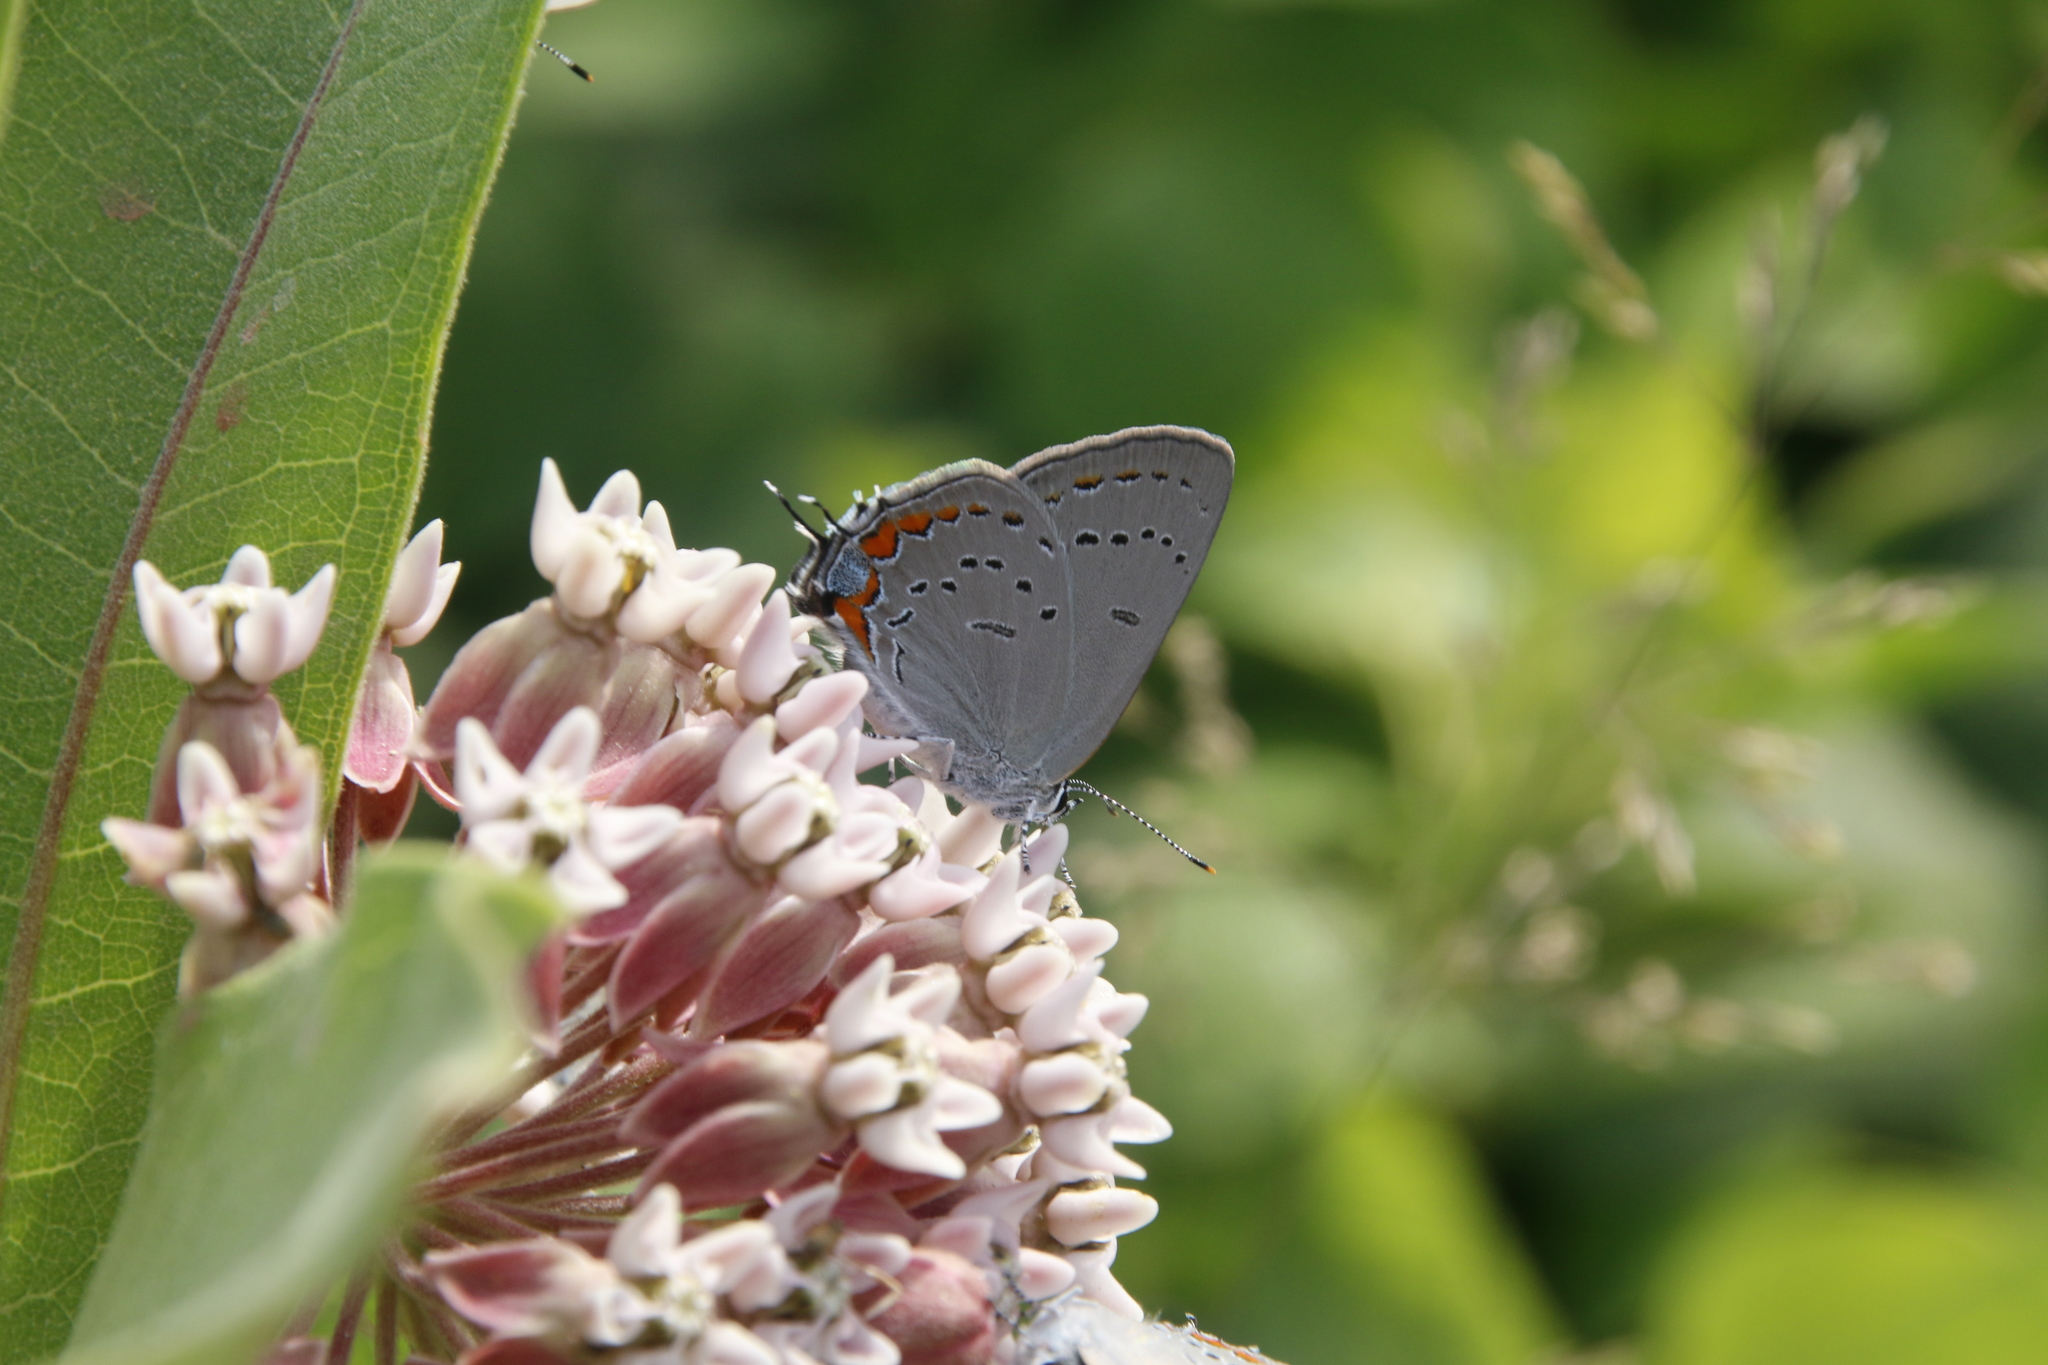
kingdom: Animalia
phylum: Arthropoda
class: Insecta
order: Lepidoptera
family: Lycaenidae
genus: Strymon
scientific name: Strymon acadica
